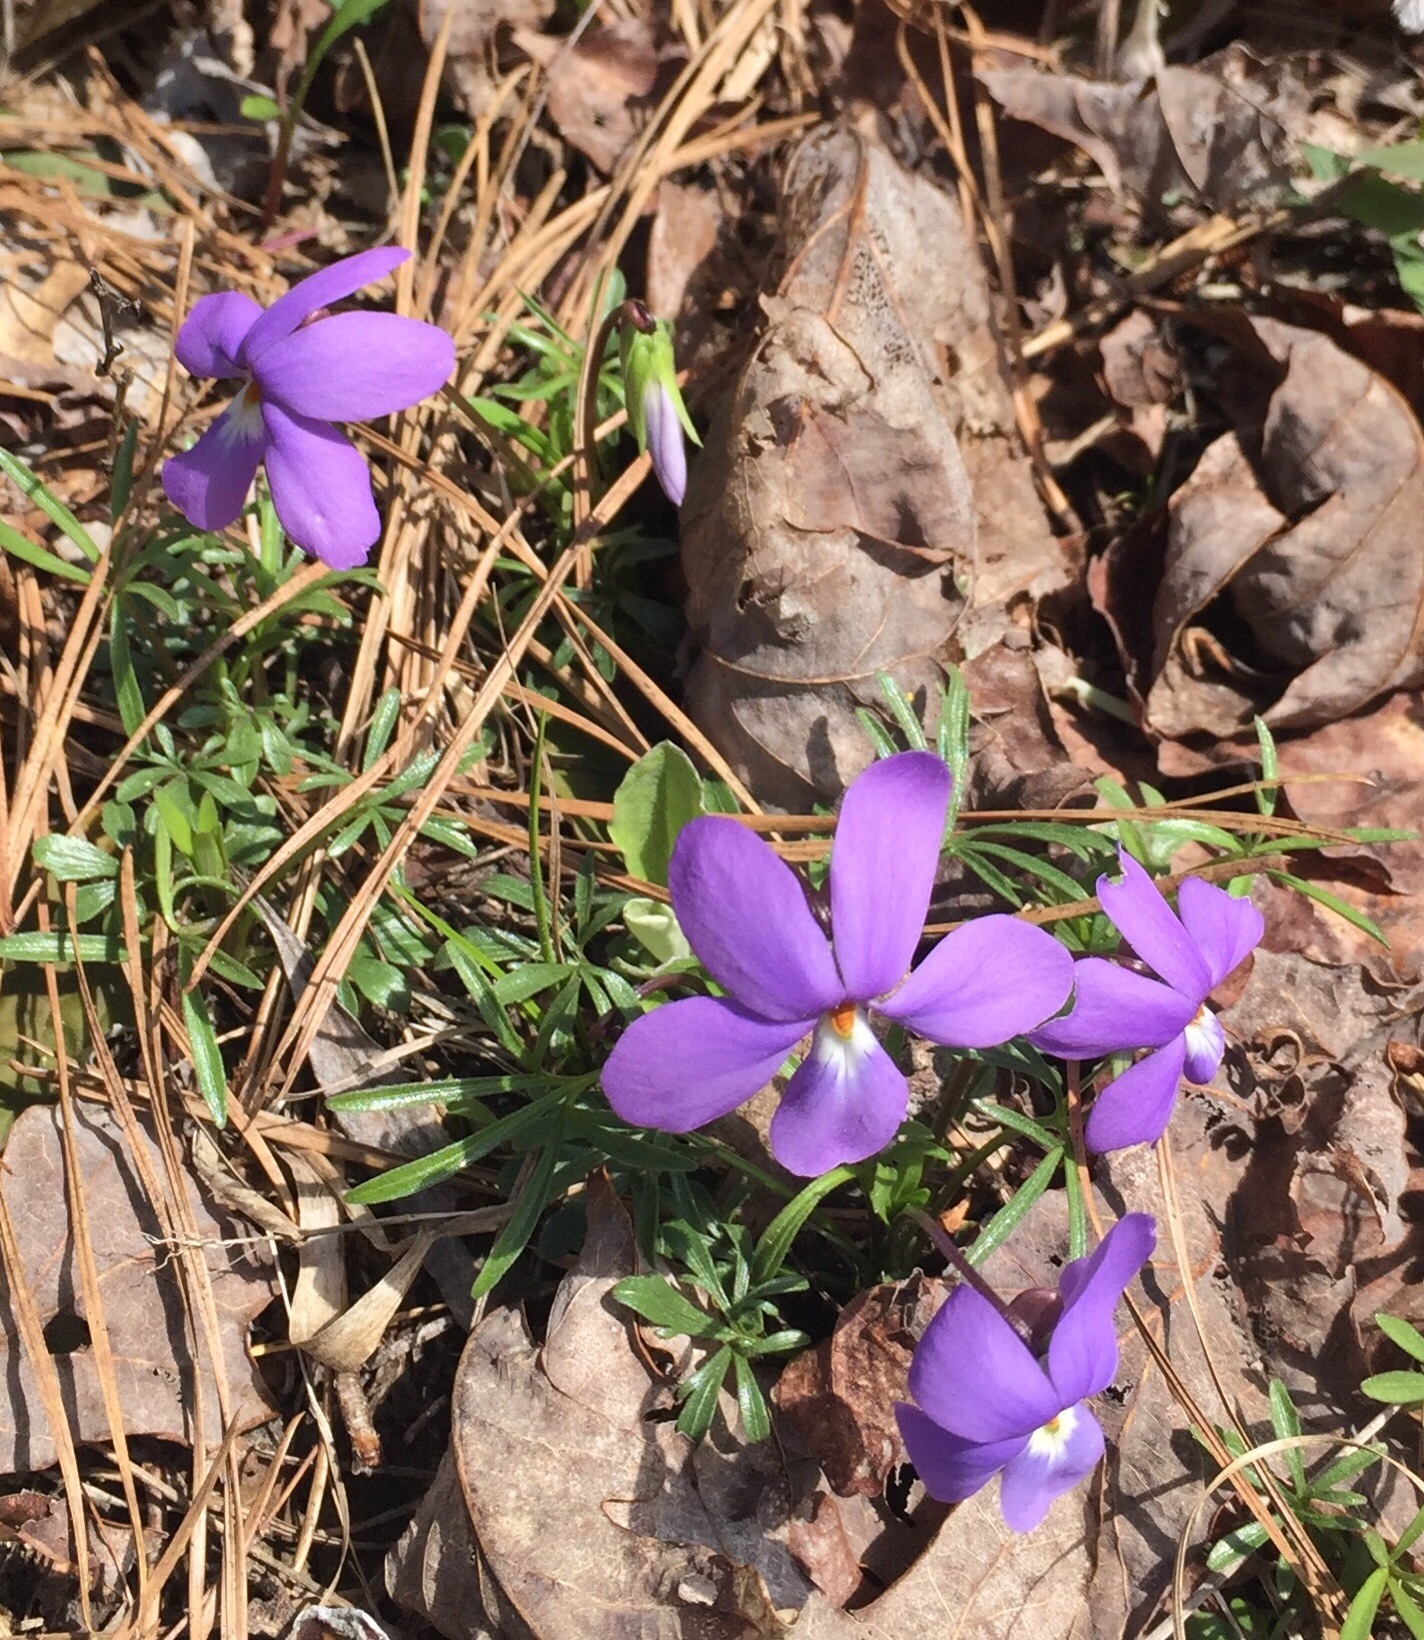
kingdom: Plantae
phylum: Tracheophyta
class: Magnoliopsida
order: Malpighiales
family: Violaceae
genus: Viola
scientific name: Viola pedata
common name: Pansy violet
